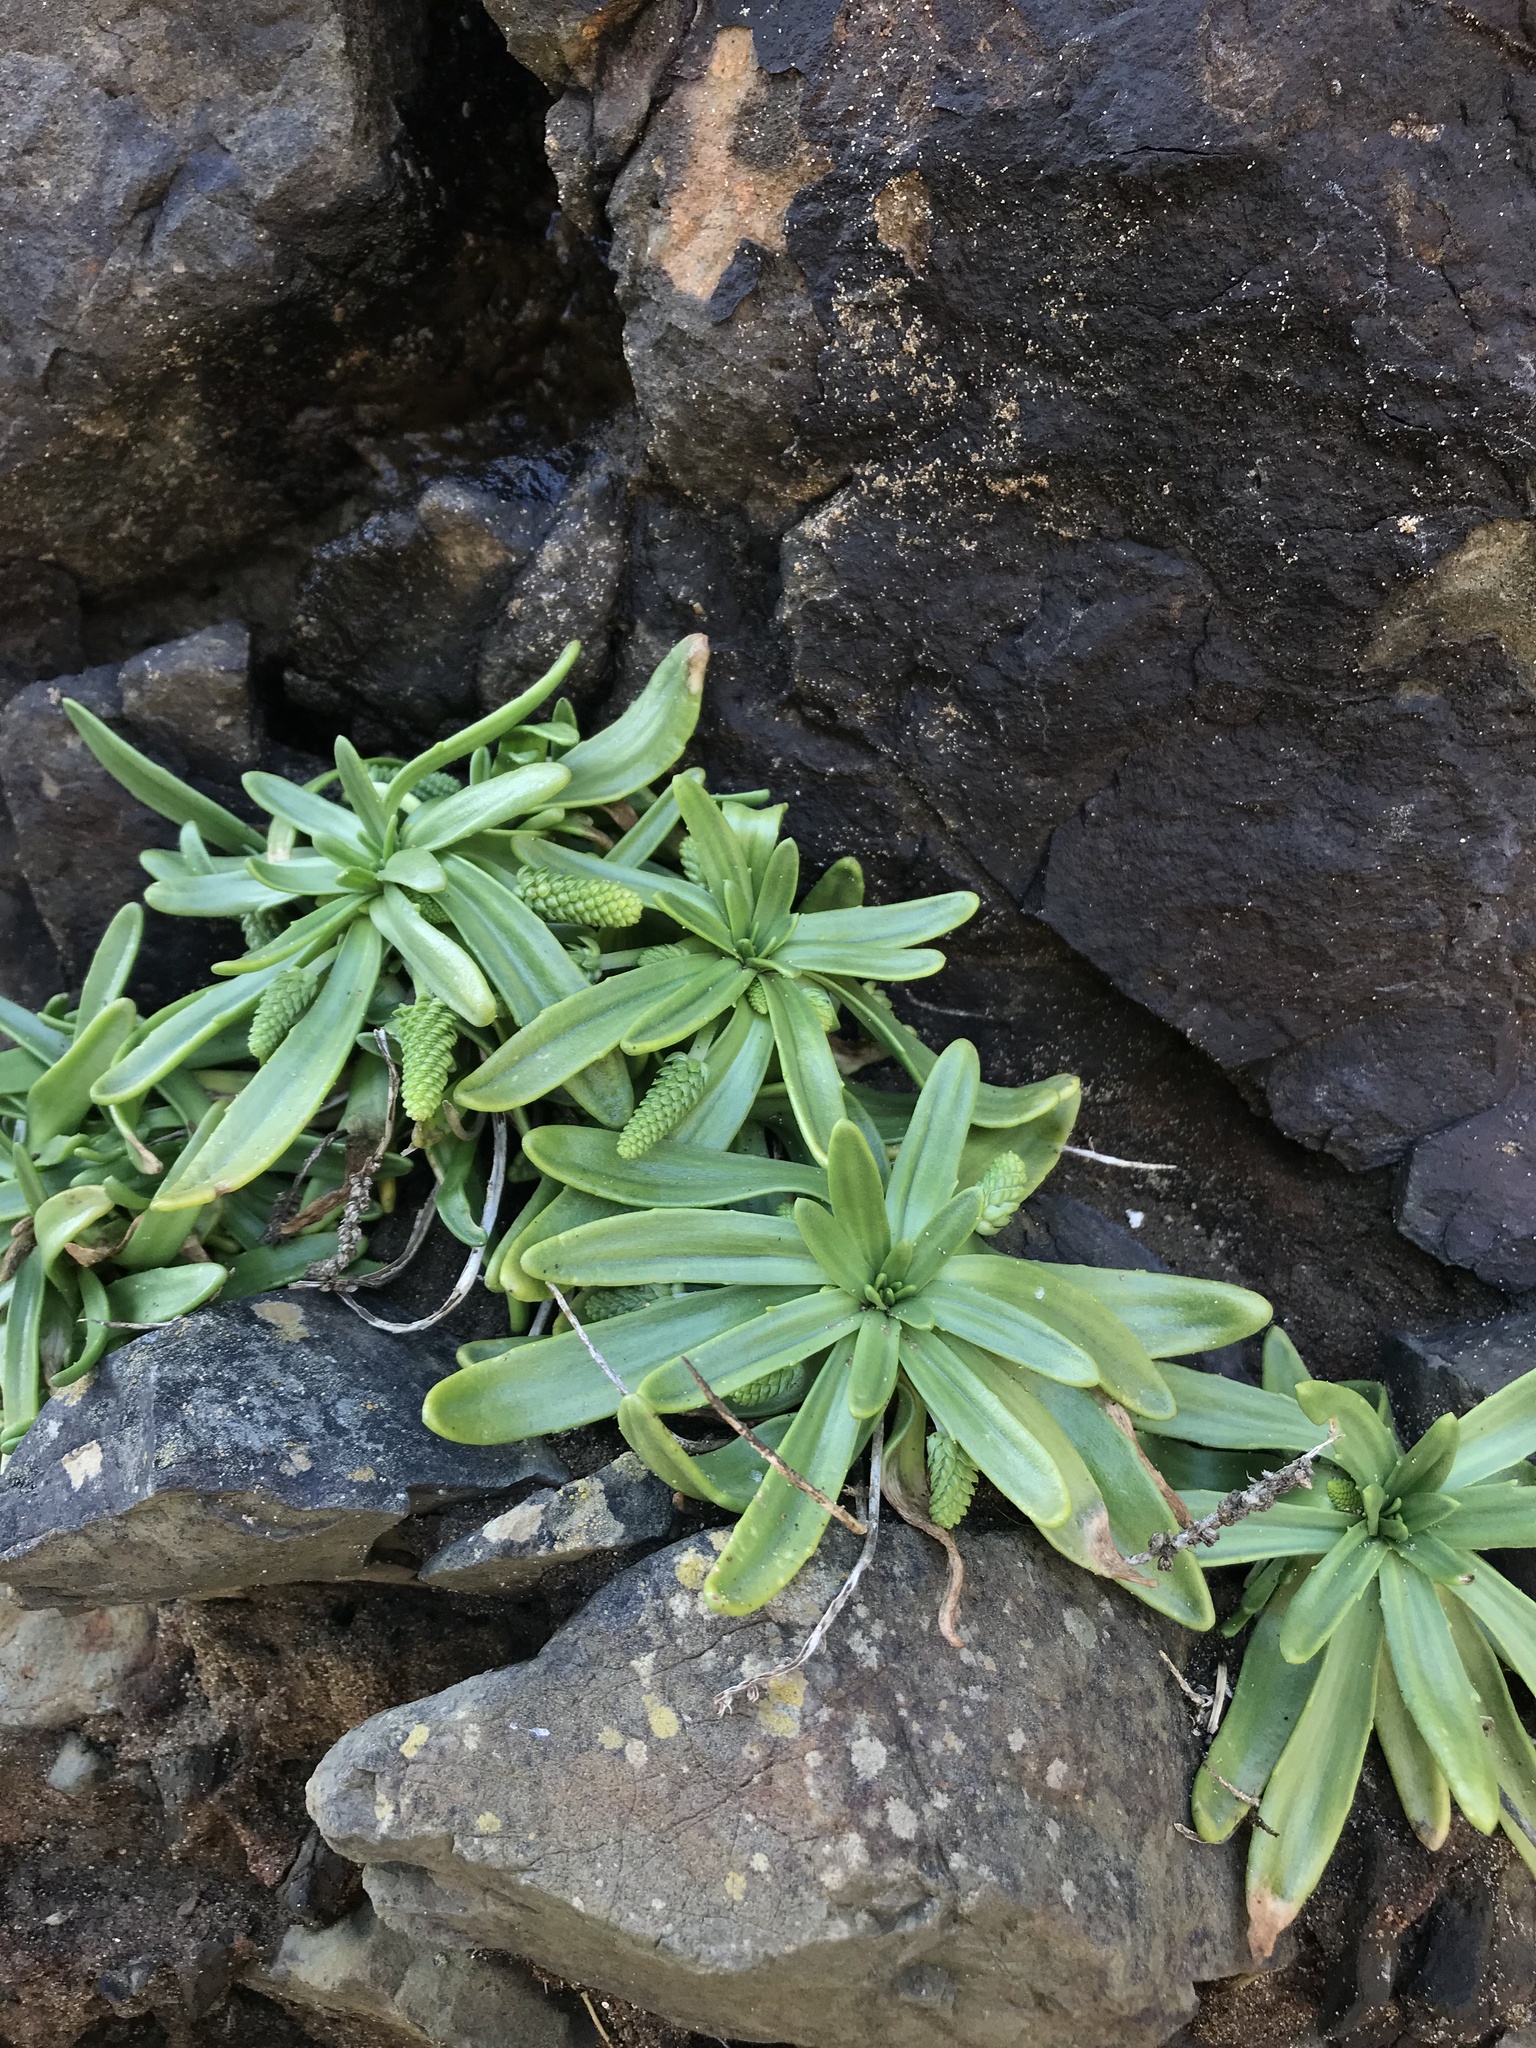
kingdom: Plantae
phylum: Tracheophyta
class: Magnoliopsida
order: Lamiales
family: Plantaginaceae
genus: Plantago
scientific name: Plantago maritima
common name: Sea plantain
